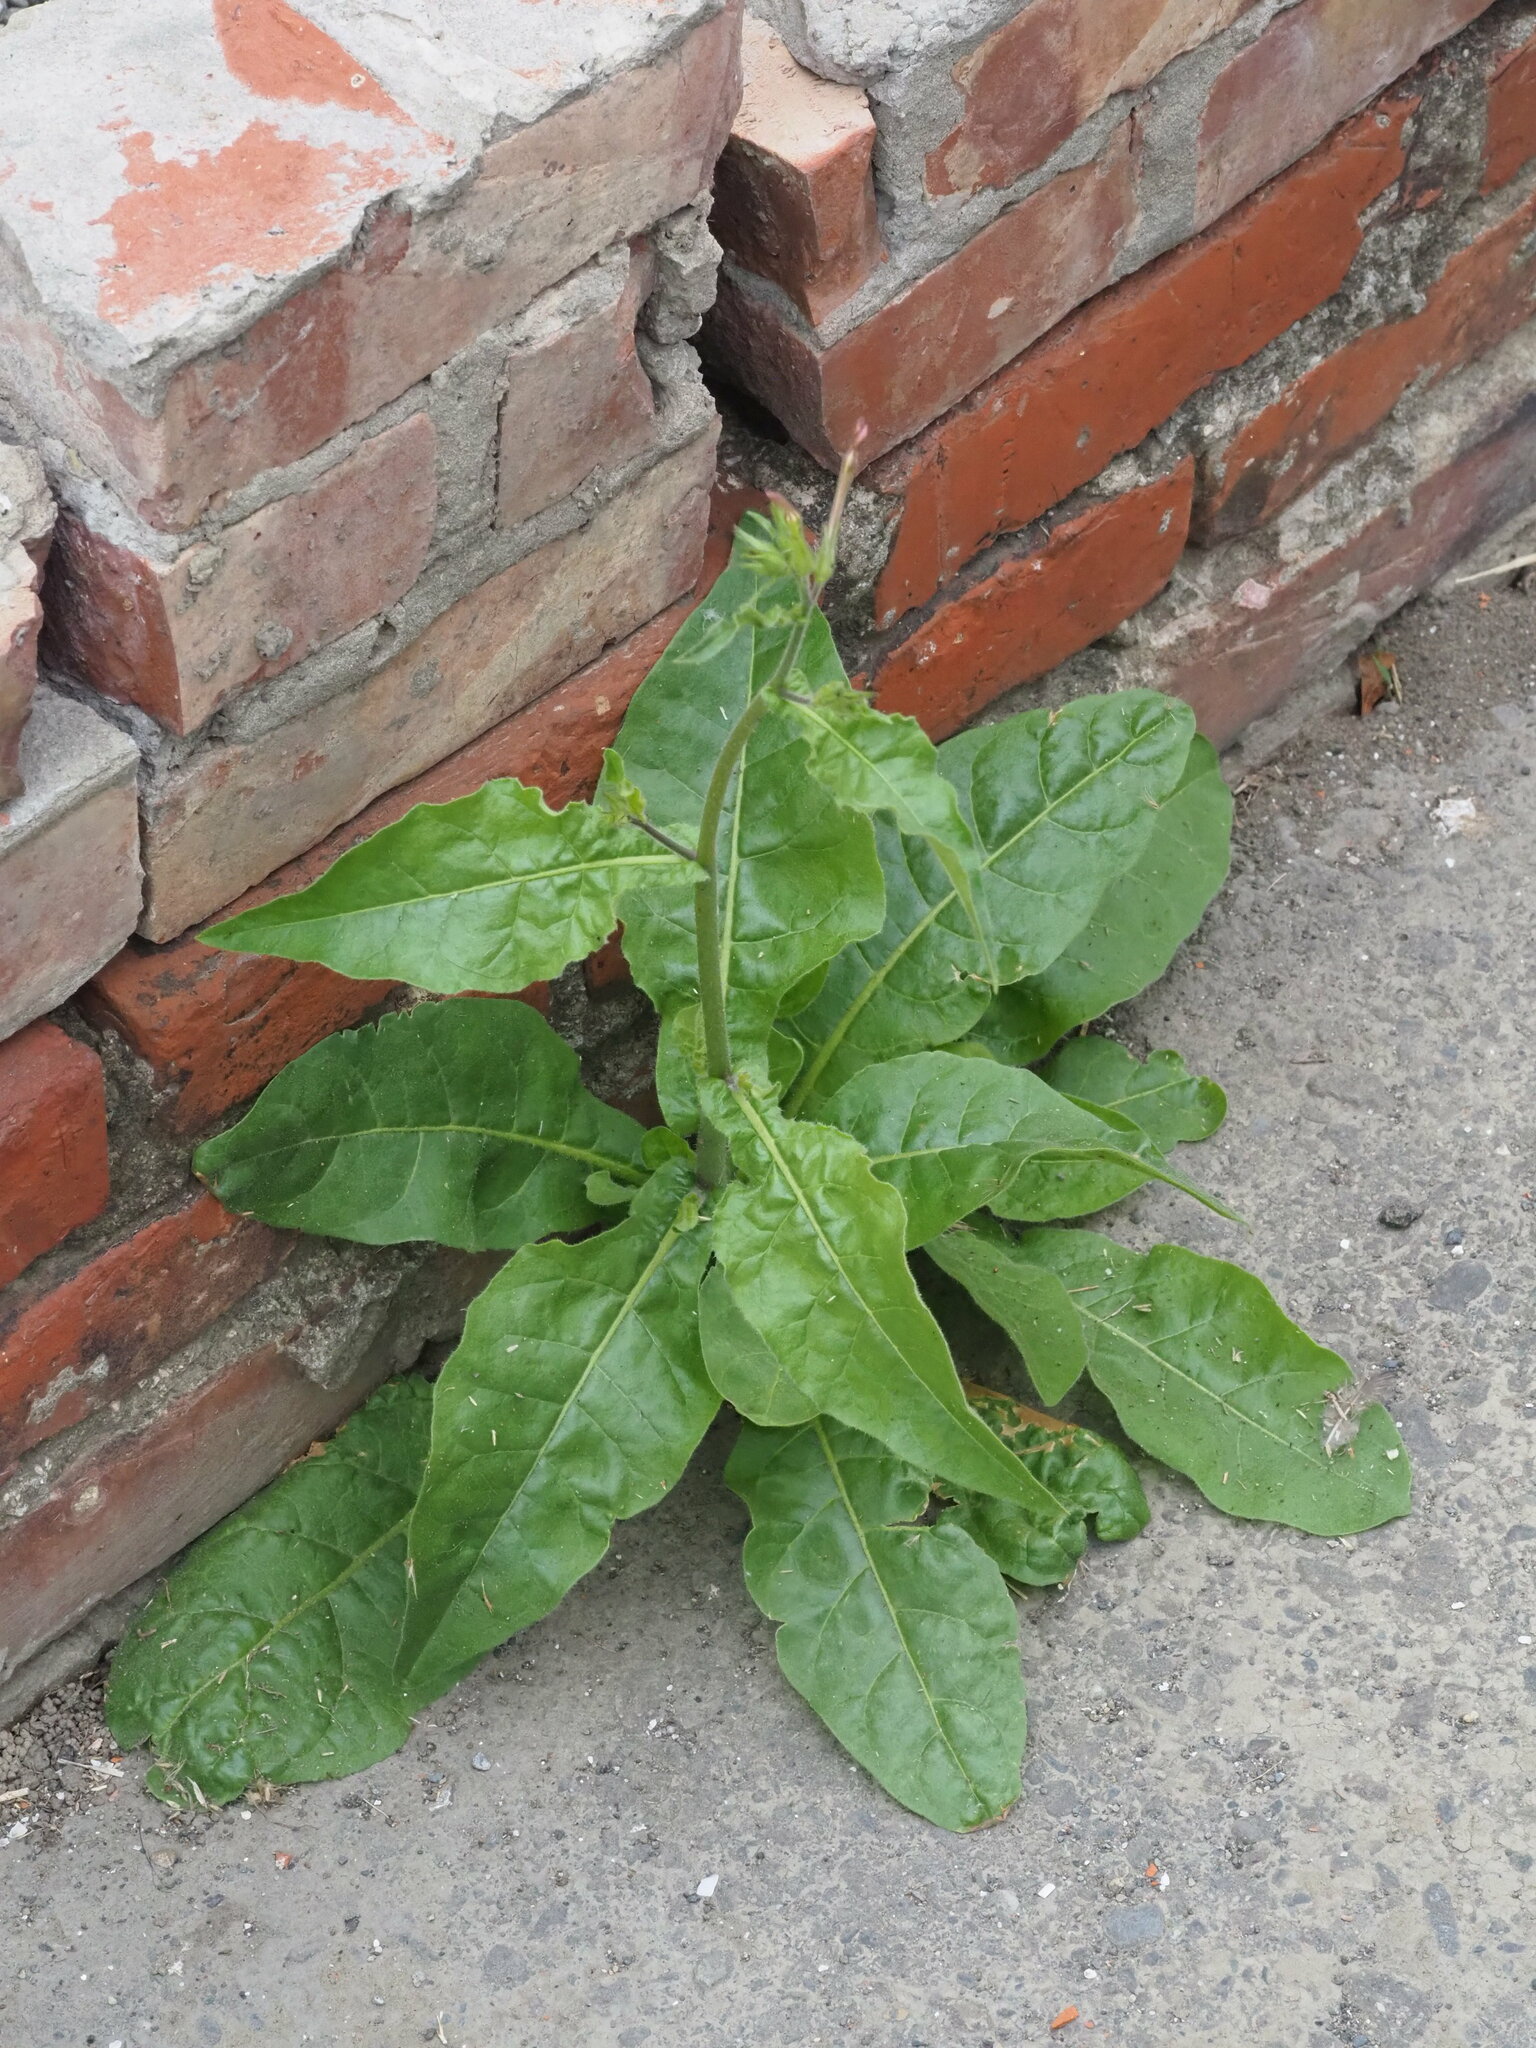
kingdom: Plantae
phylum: Tracheophyta
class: Magnoliopsida
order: Solanales
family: Solanaceae
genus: Nicotiana
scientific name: Nicotiana plumbaginifolia
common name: Tex-mex tobacco
